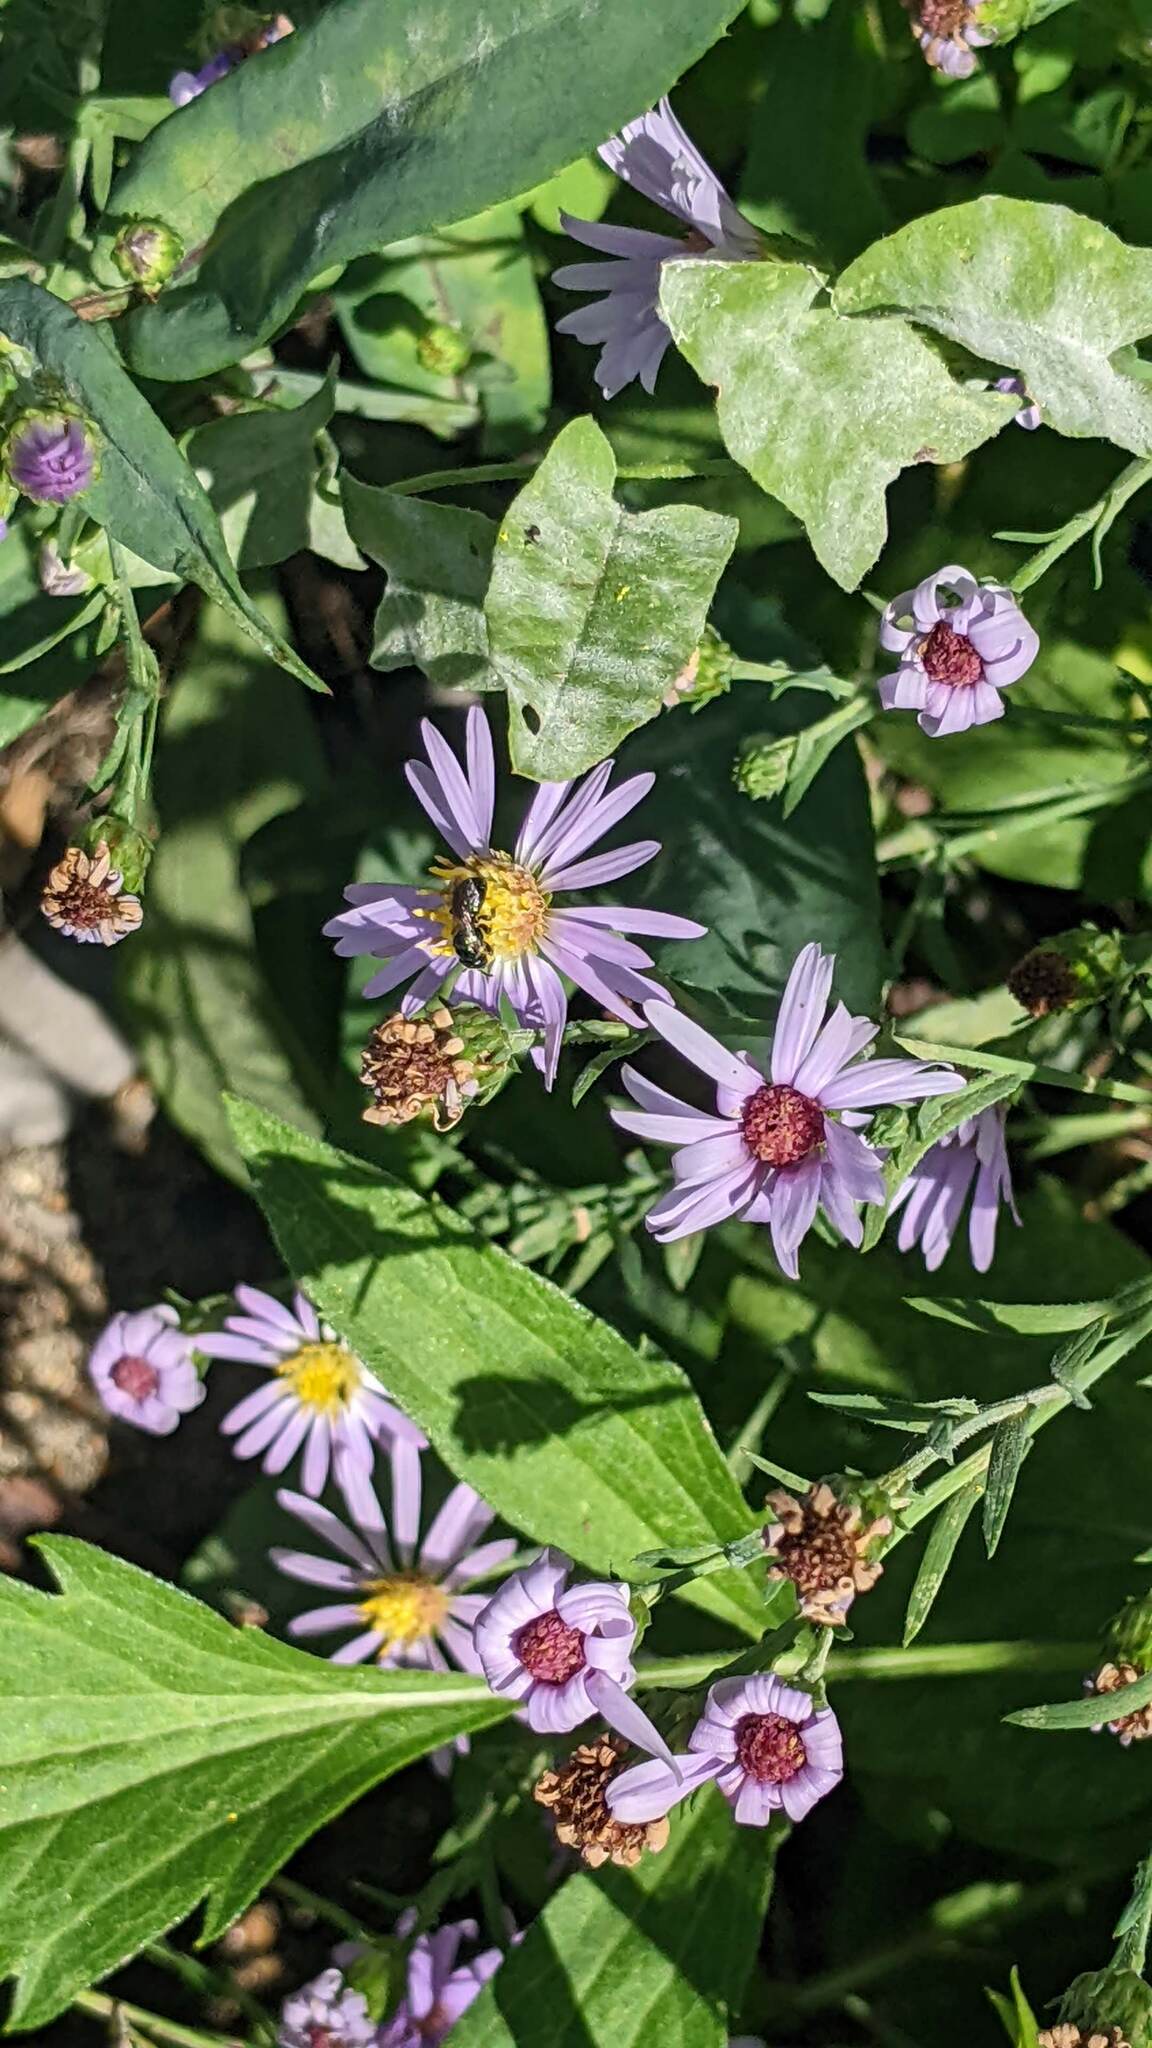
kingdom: Animalia
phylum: Arthropoda
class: Insecta
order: Hymenoptera
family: Apidae
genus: Zadontomerus
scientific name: Zadontomerus
